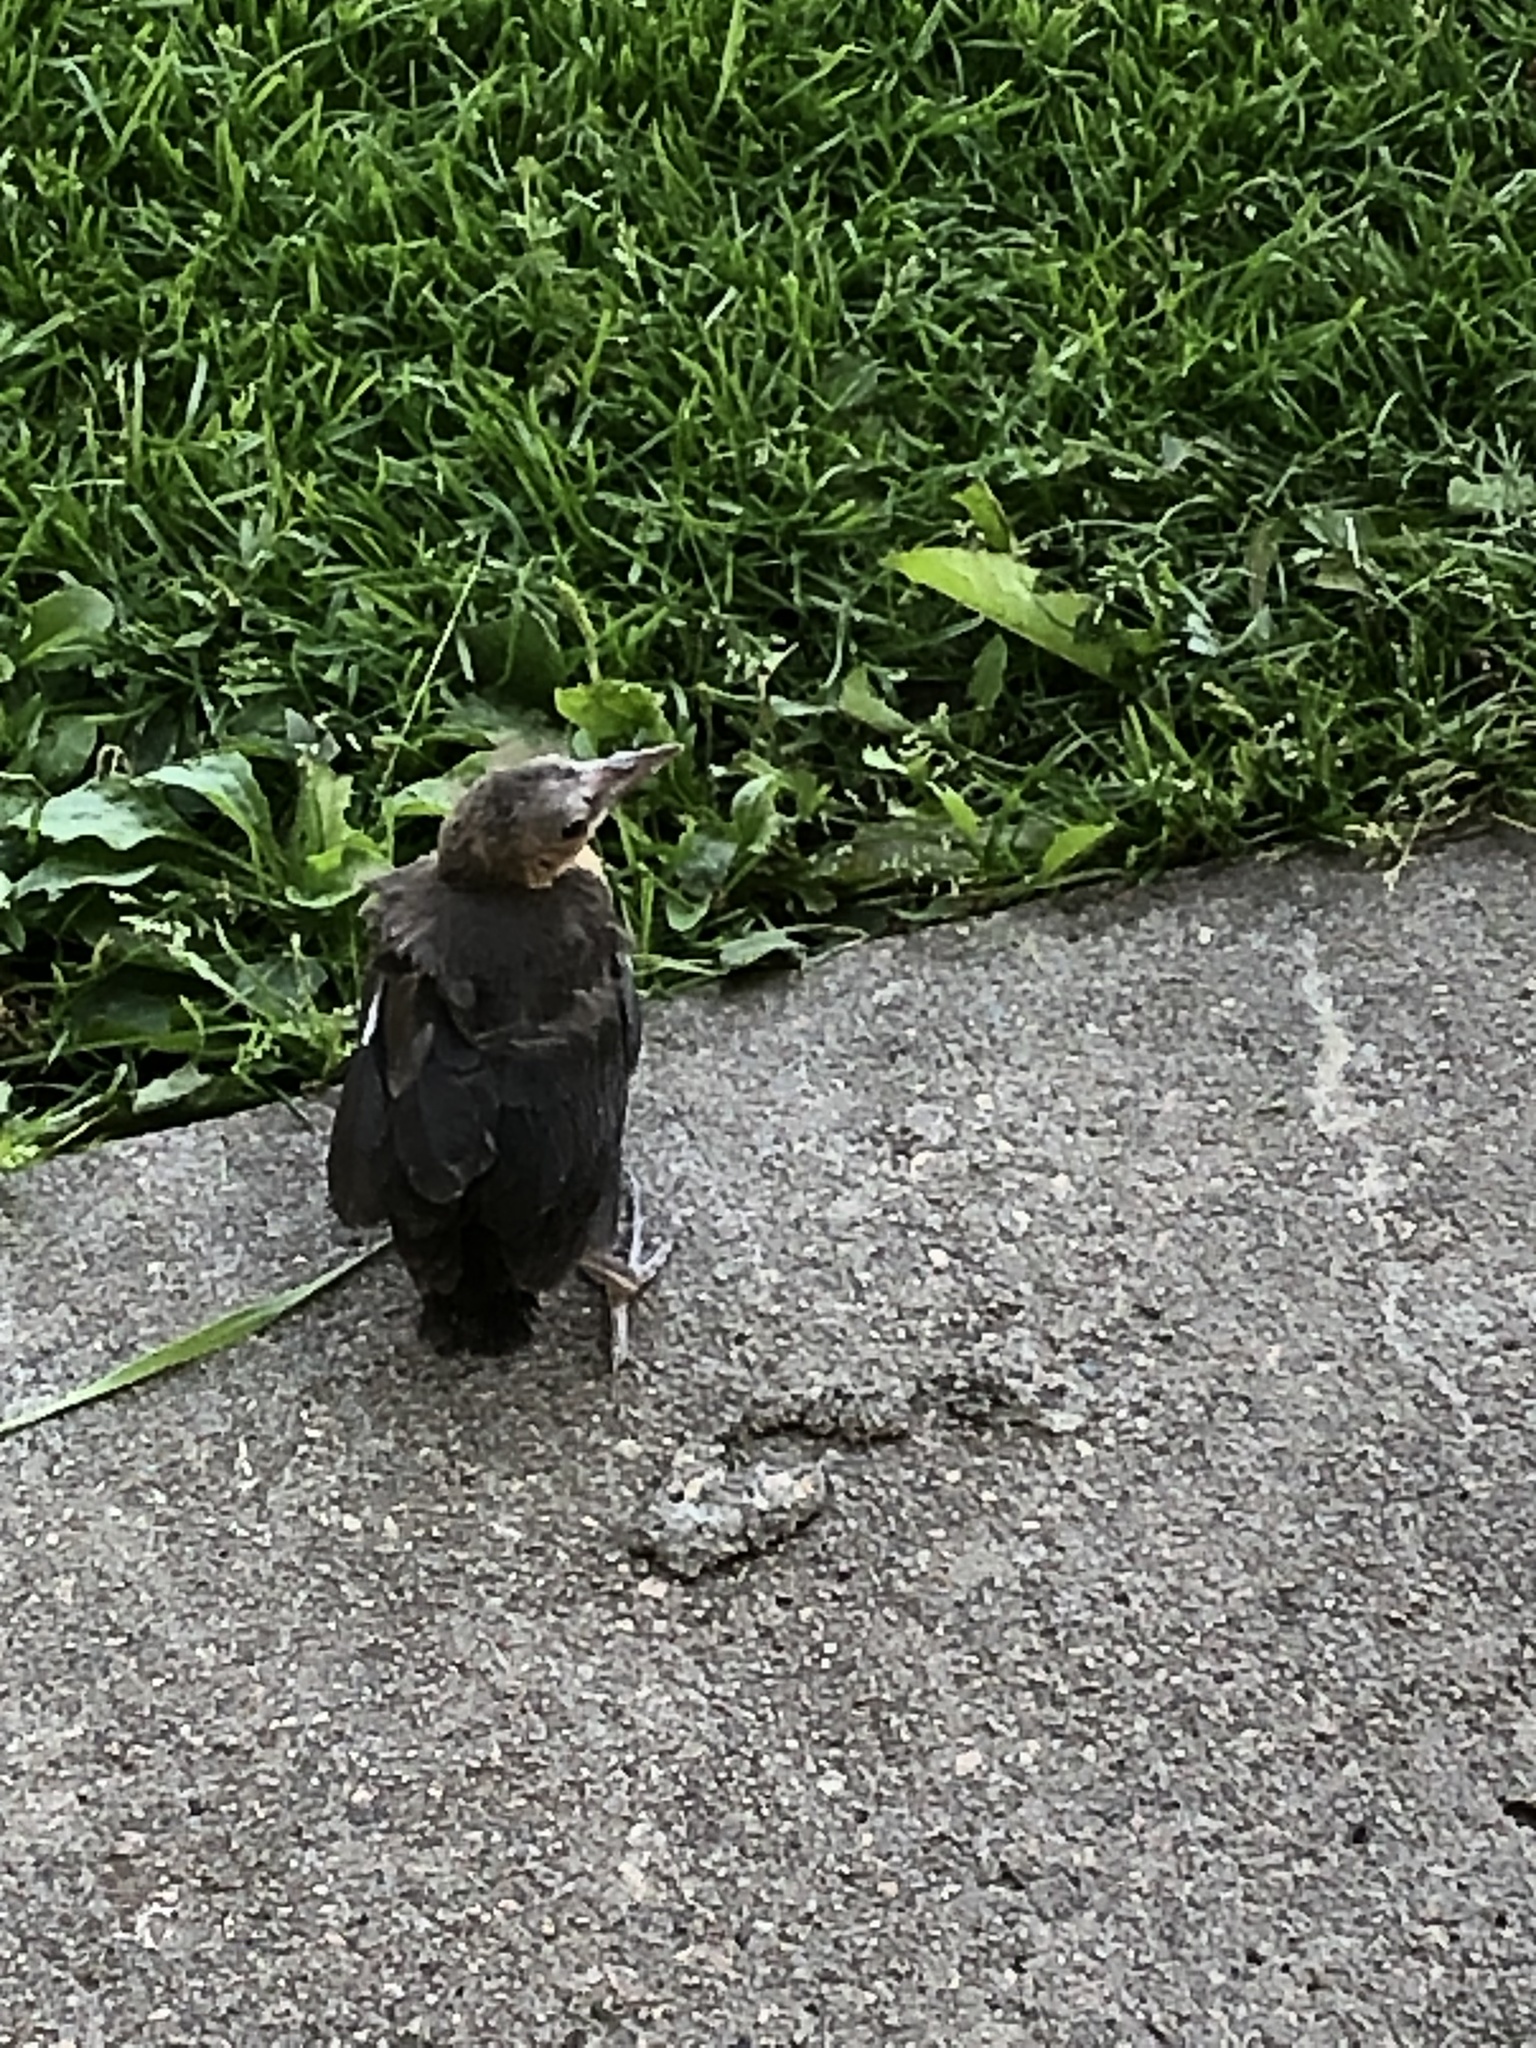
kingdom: Animalia
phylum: Chordata
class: Aves
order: Passeriformes
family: Icteridae
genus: Quiscalus
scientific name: Quiscalus mexicanus
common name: Great-tailed grackle
